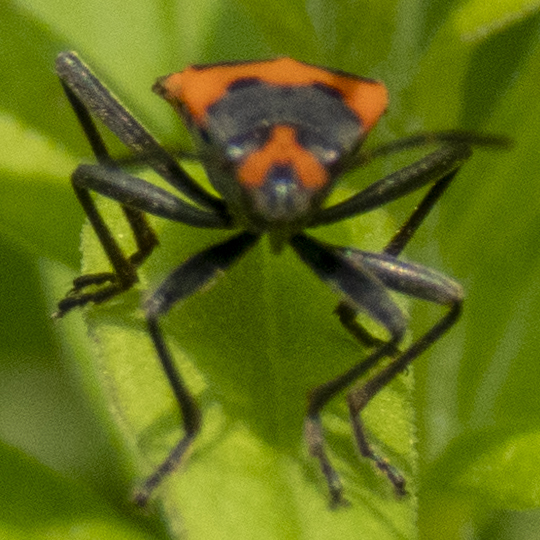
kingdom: Animalia
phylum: Arthropoda
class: Insecta
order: Hemiptera
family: Lygaeidae
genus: Lygaeus
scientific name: Lygaeus turcicus
